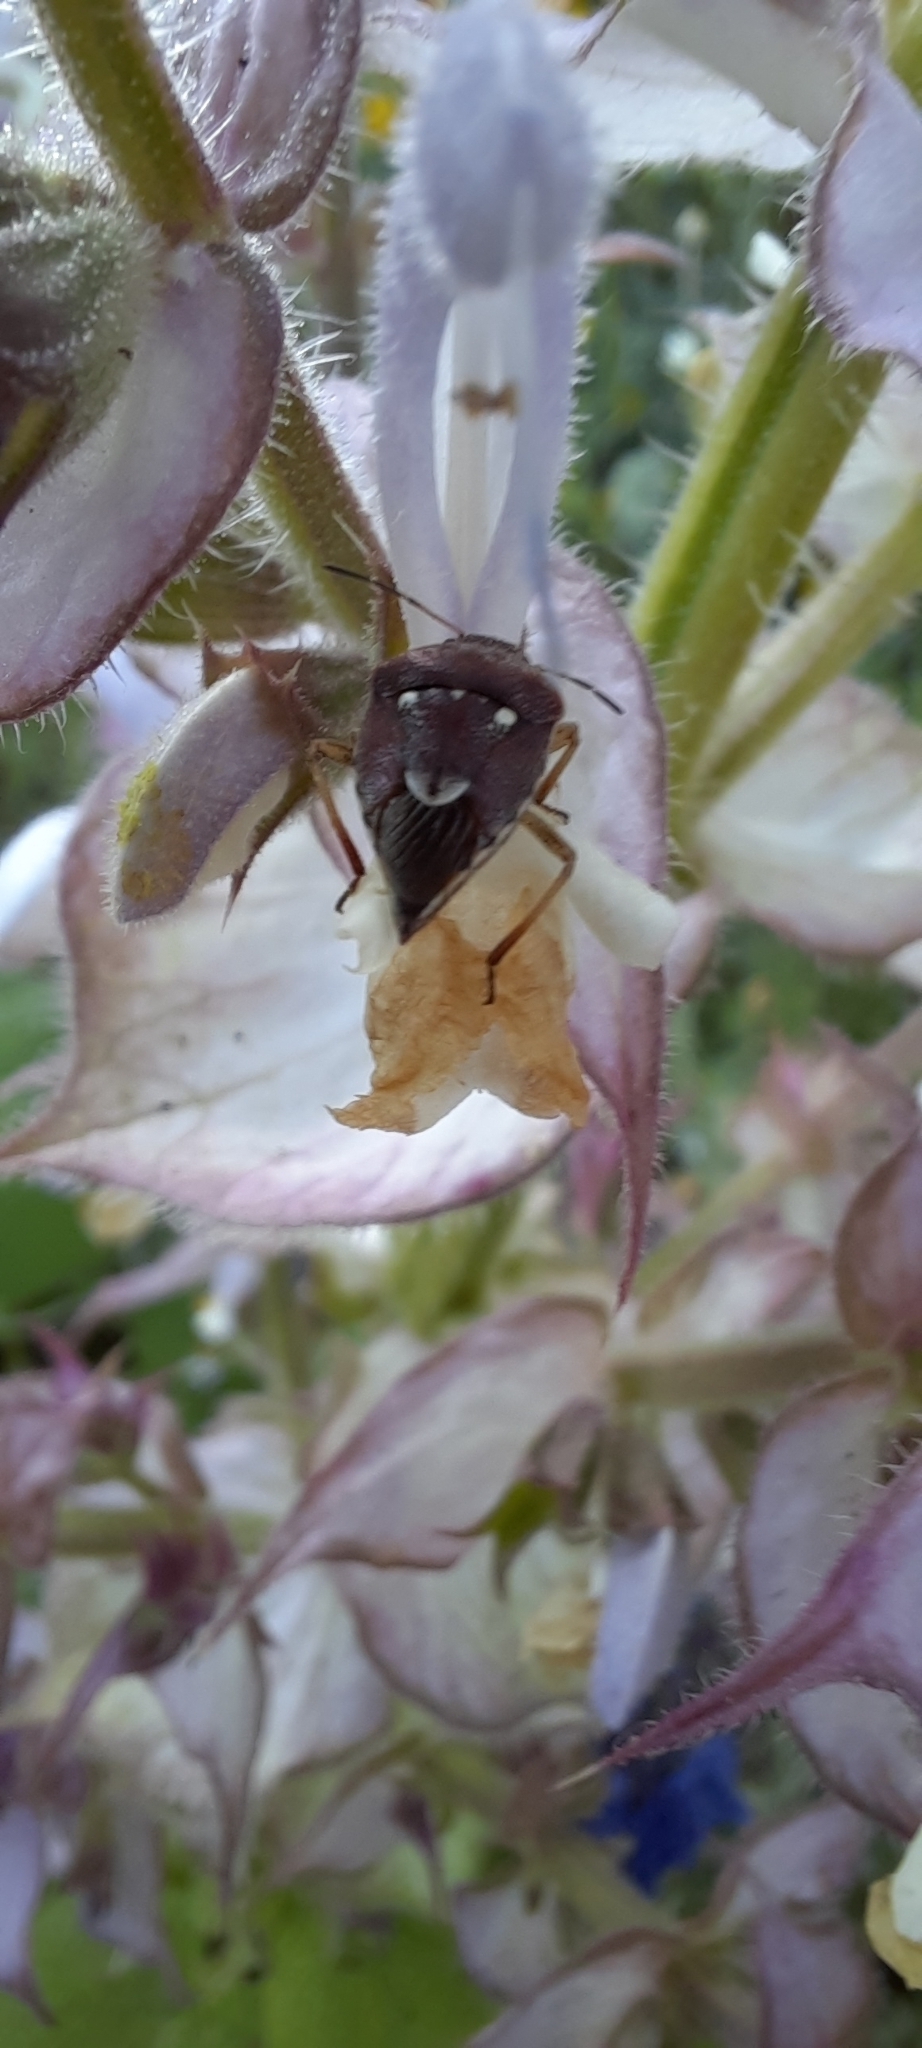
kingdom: Animalia
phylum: Arthropoda
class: Insecta
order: Hemiptera
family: Pentatomidae
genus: Stagonomus
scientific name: Stagonomus amoenus
